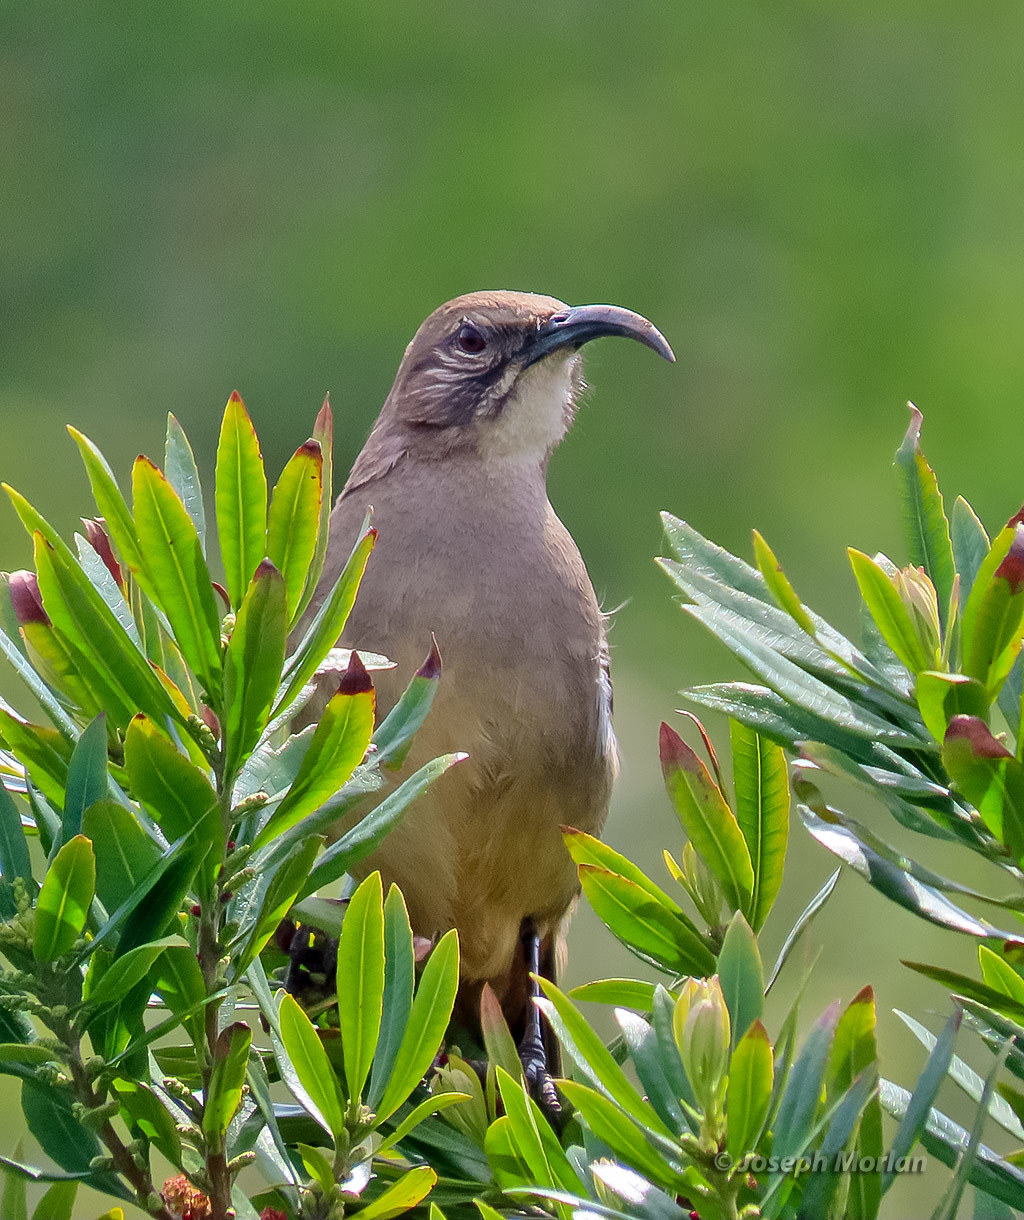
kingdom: Animalia
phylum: Chordata
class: Aves
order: Passeriformes
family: Mimidae
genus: Toxostoma
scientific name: Toxostoma redivivum
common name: California thrasher
